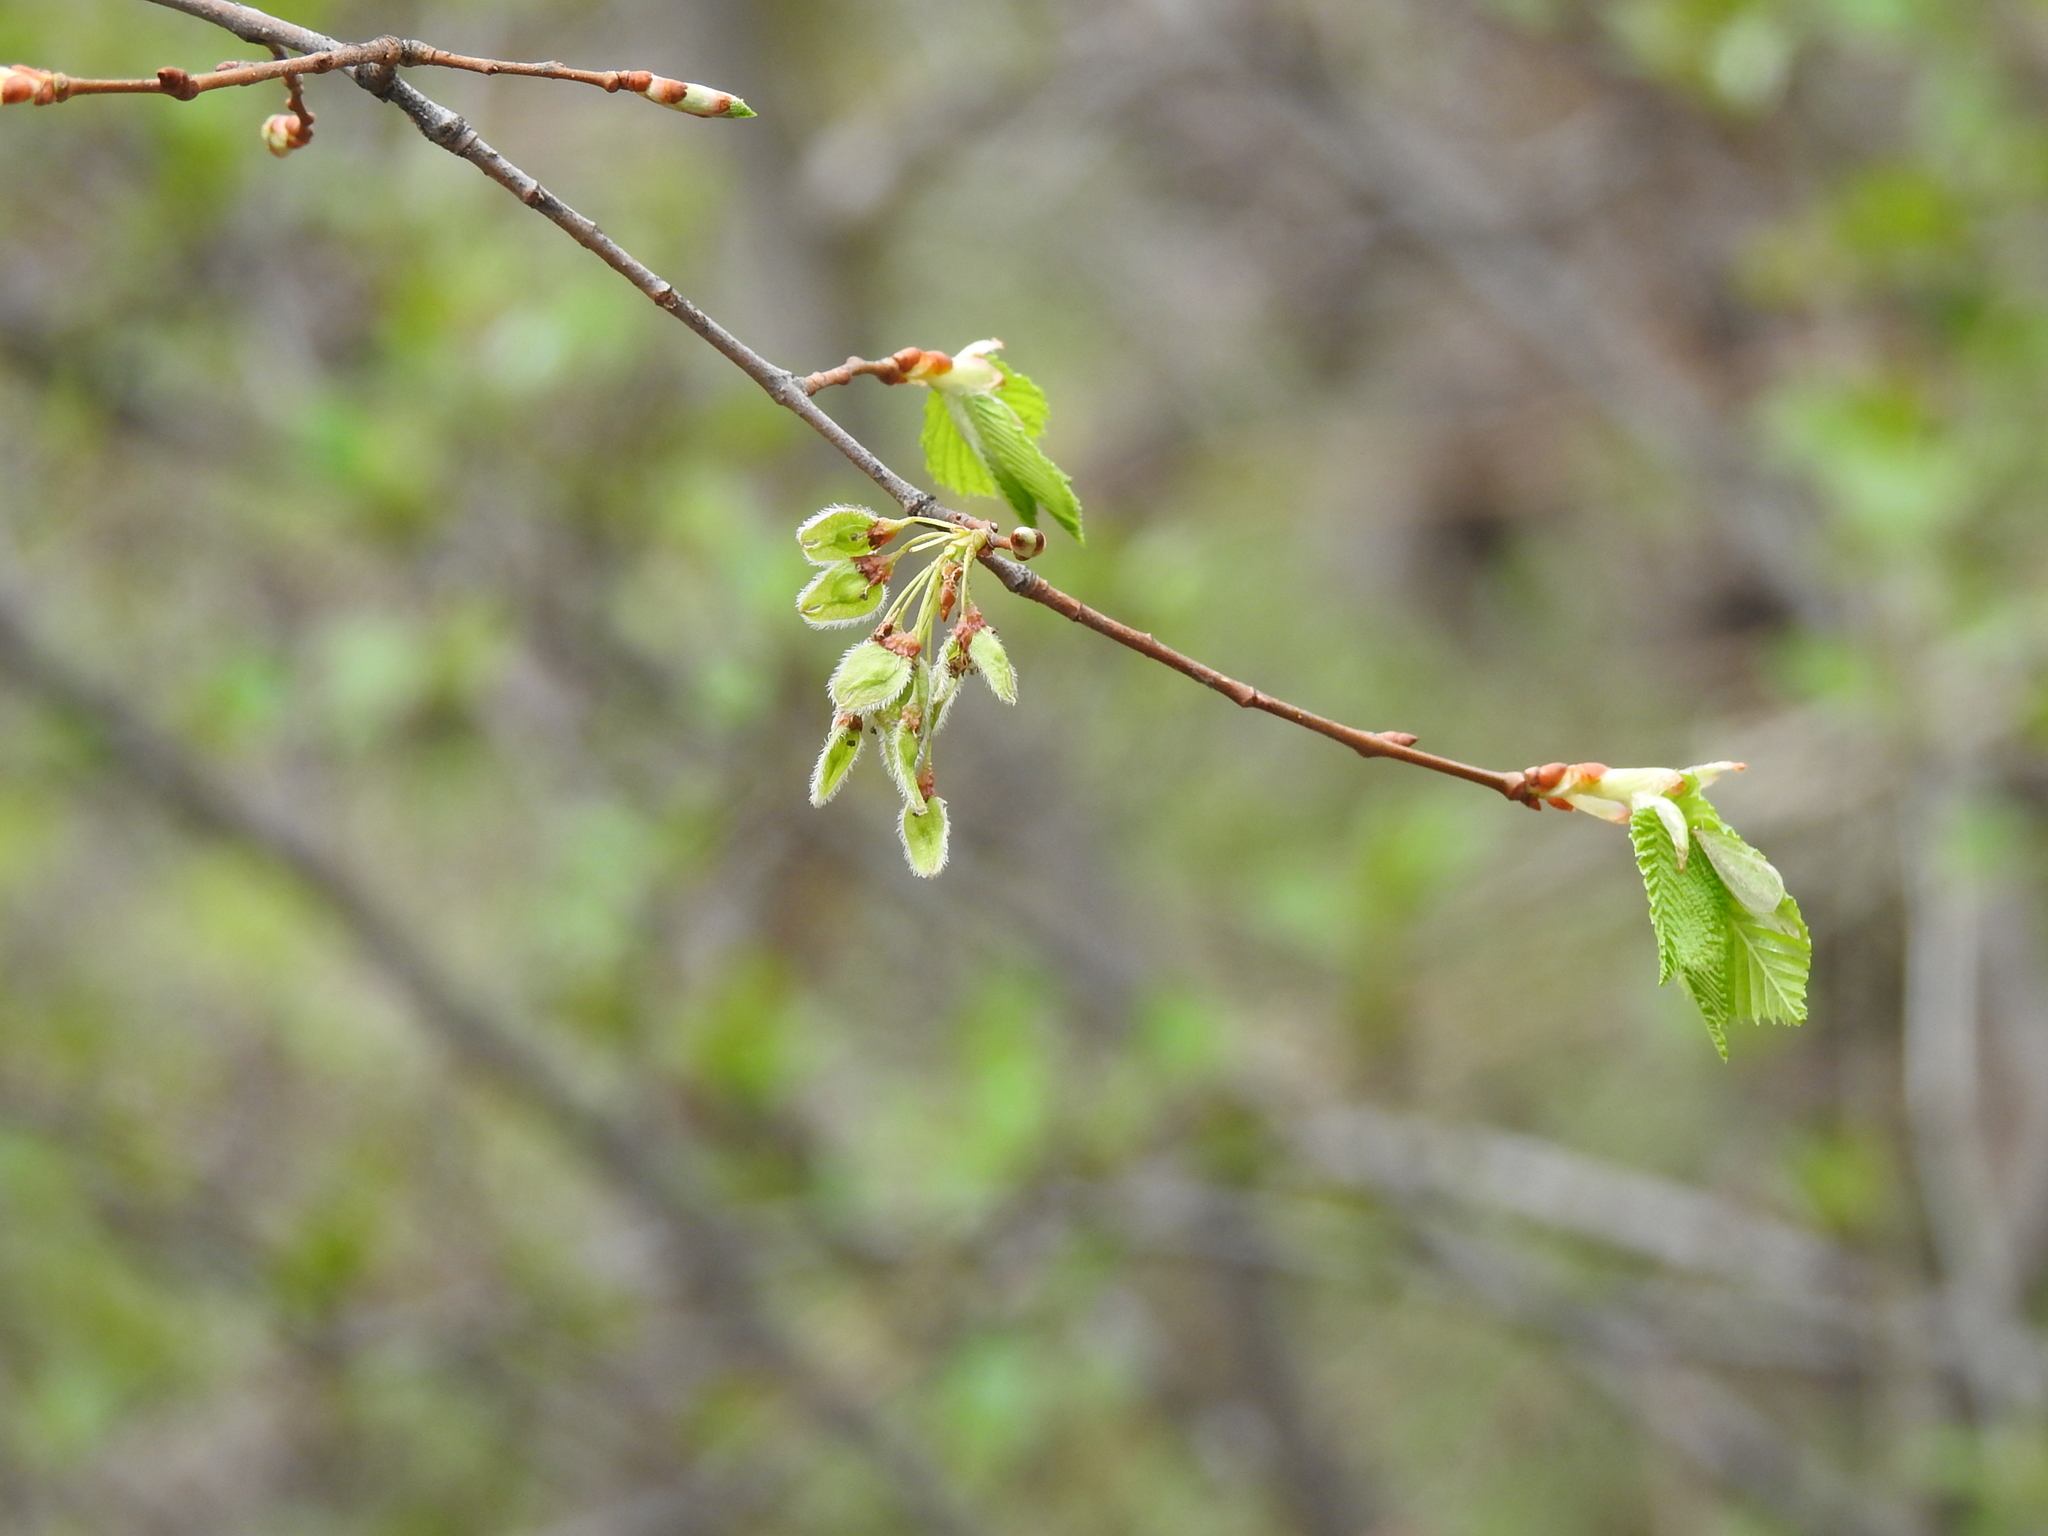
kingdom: Plantae
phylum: Tracheophyta
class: Magnoliopsida
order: Rosales
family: Ulmaceae
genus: Ulmus
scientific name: Ulmus laevis
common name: European white-elm
